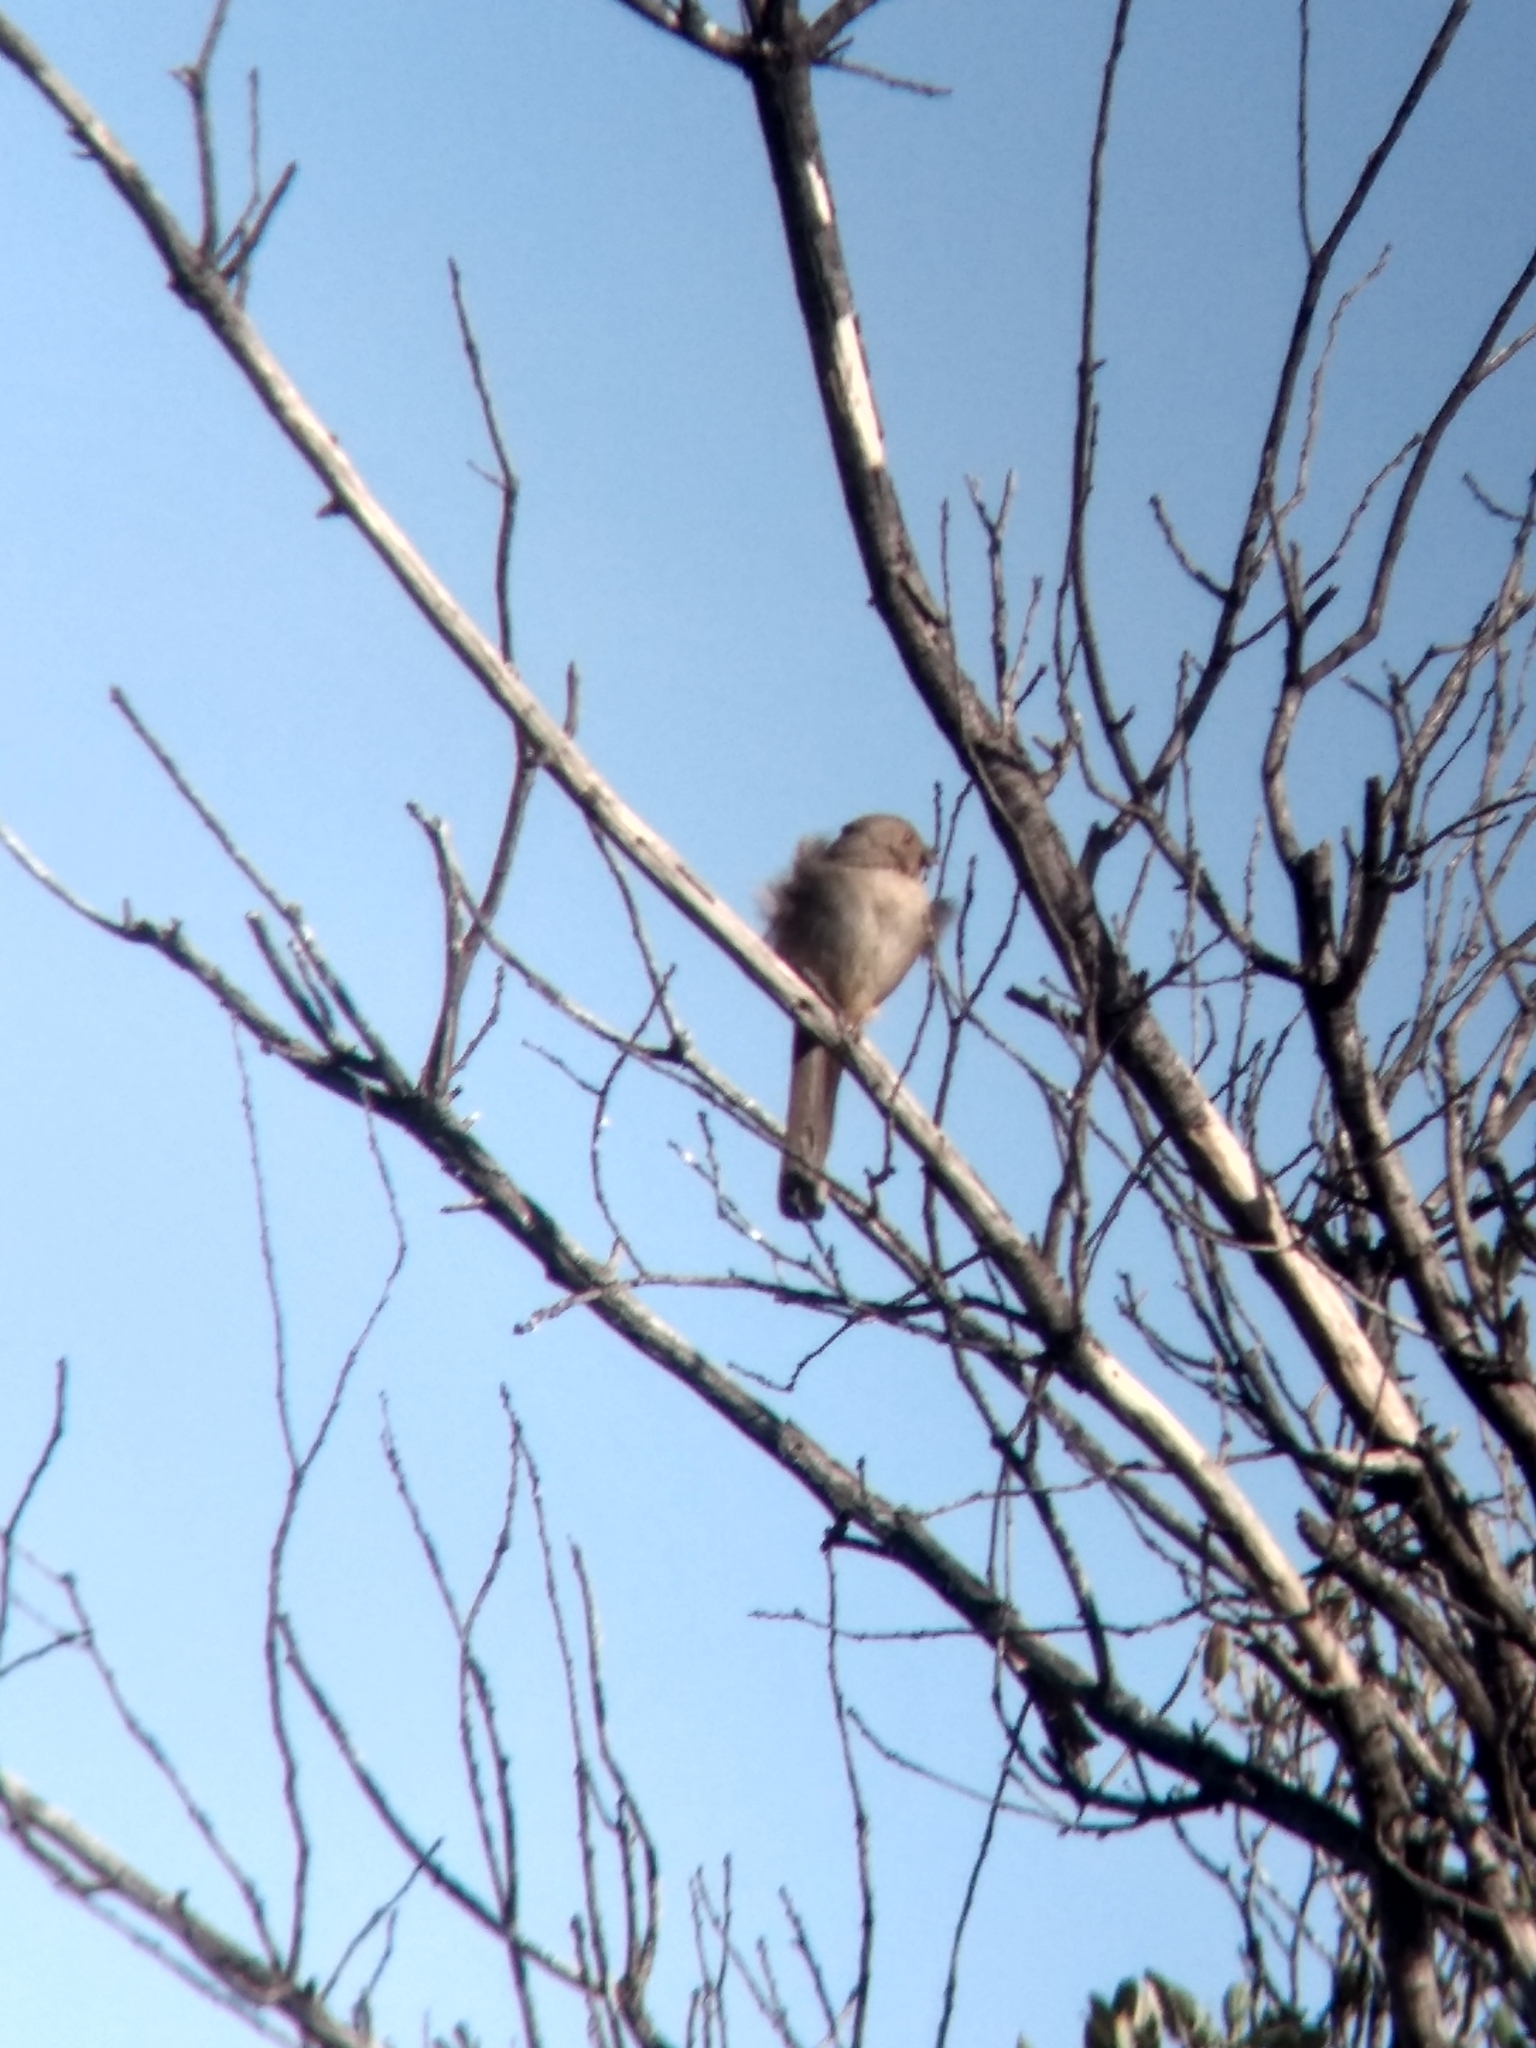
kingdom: Animalia
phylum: Chordata
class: Aves
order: Passeriformes
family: Passerellidae
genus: Melozone
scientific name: Melozone crissalis
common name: California towhee
